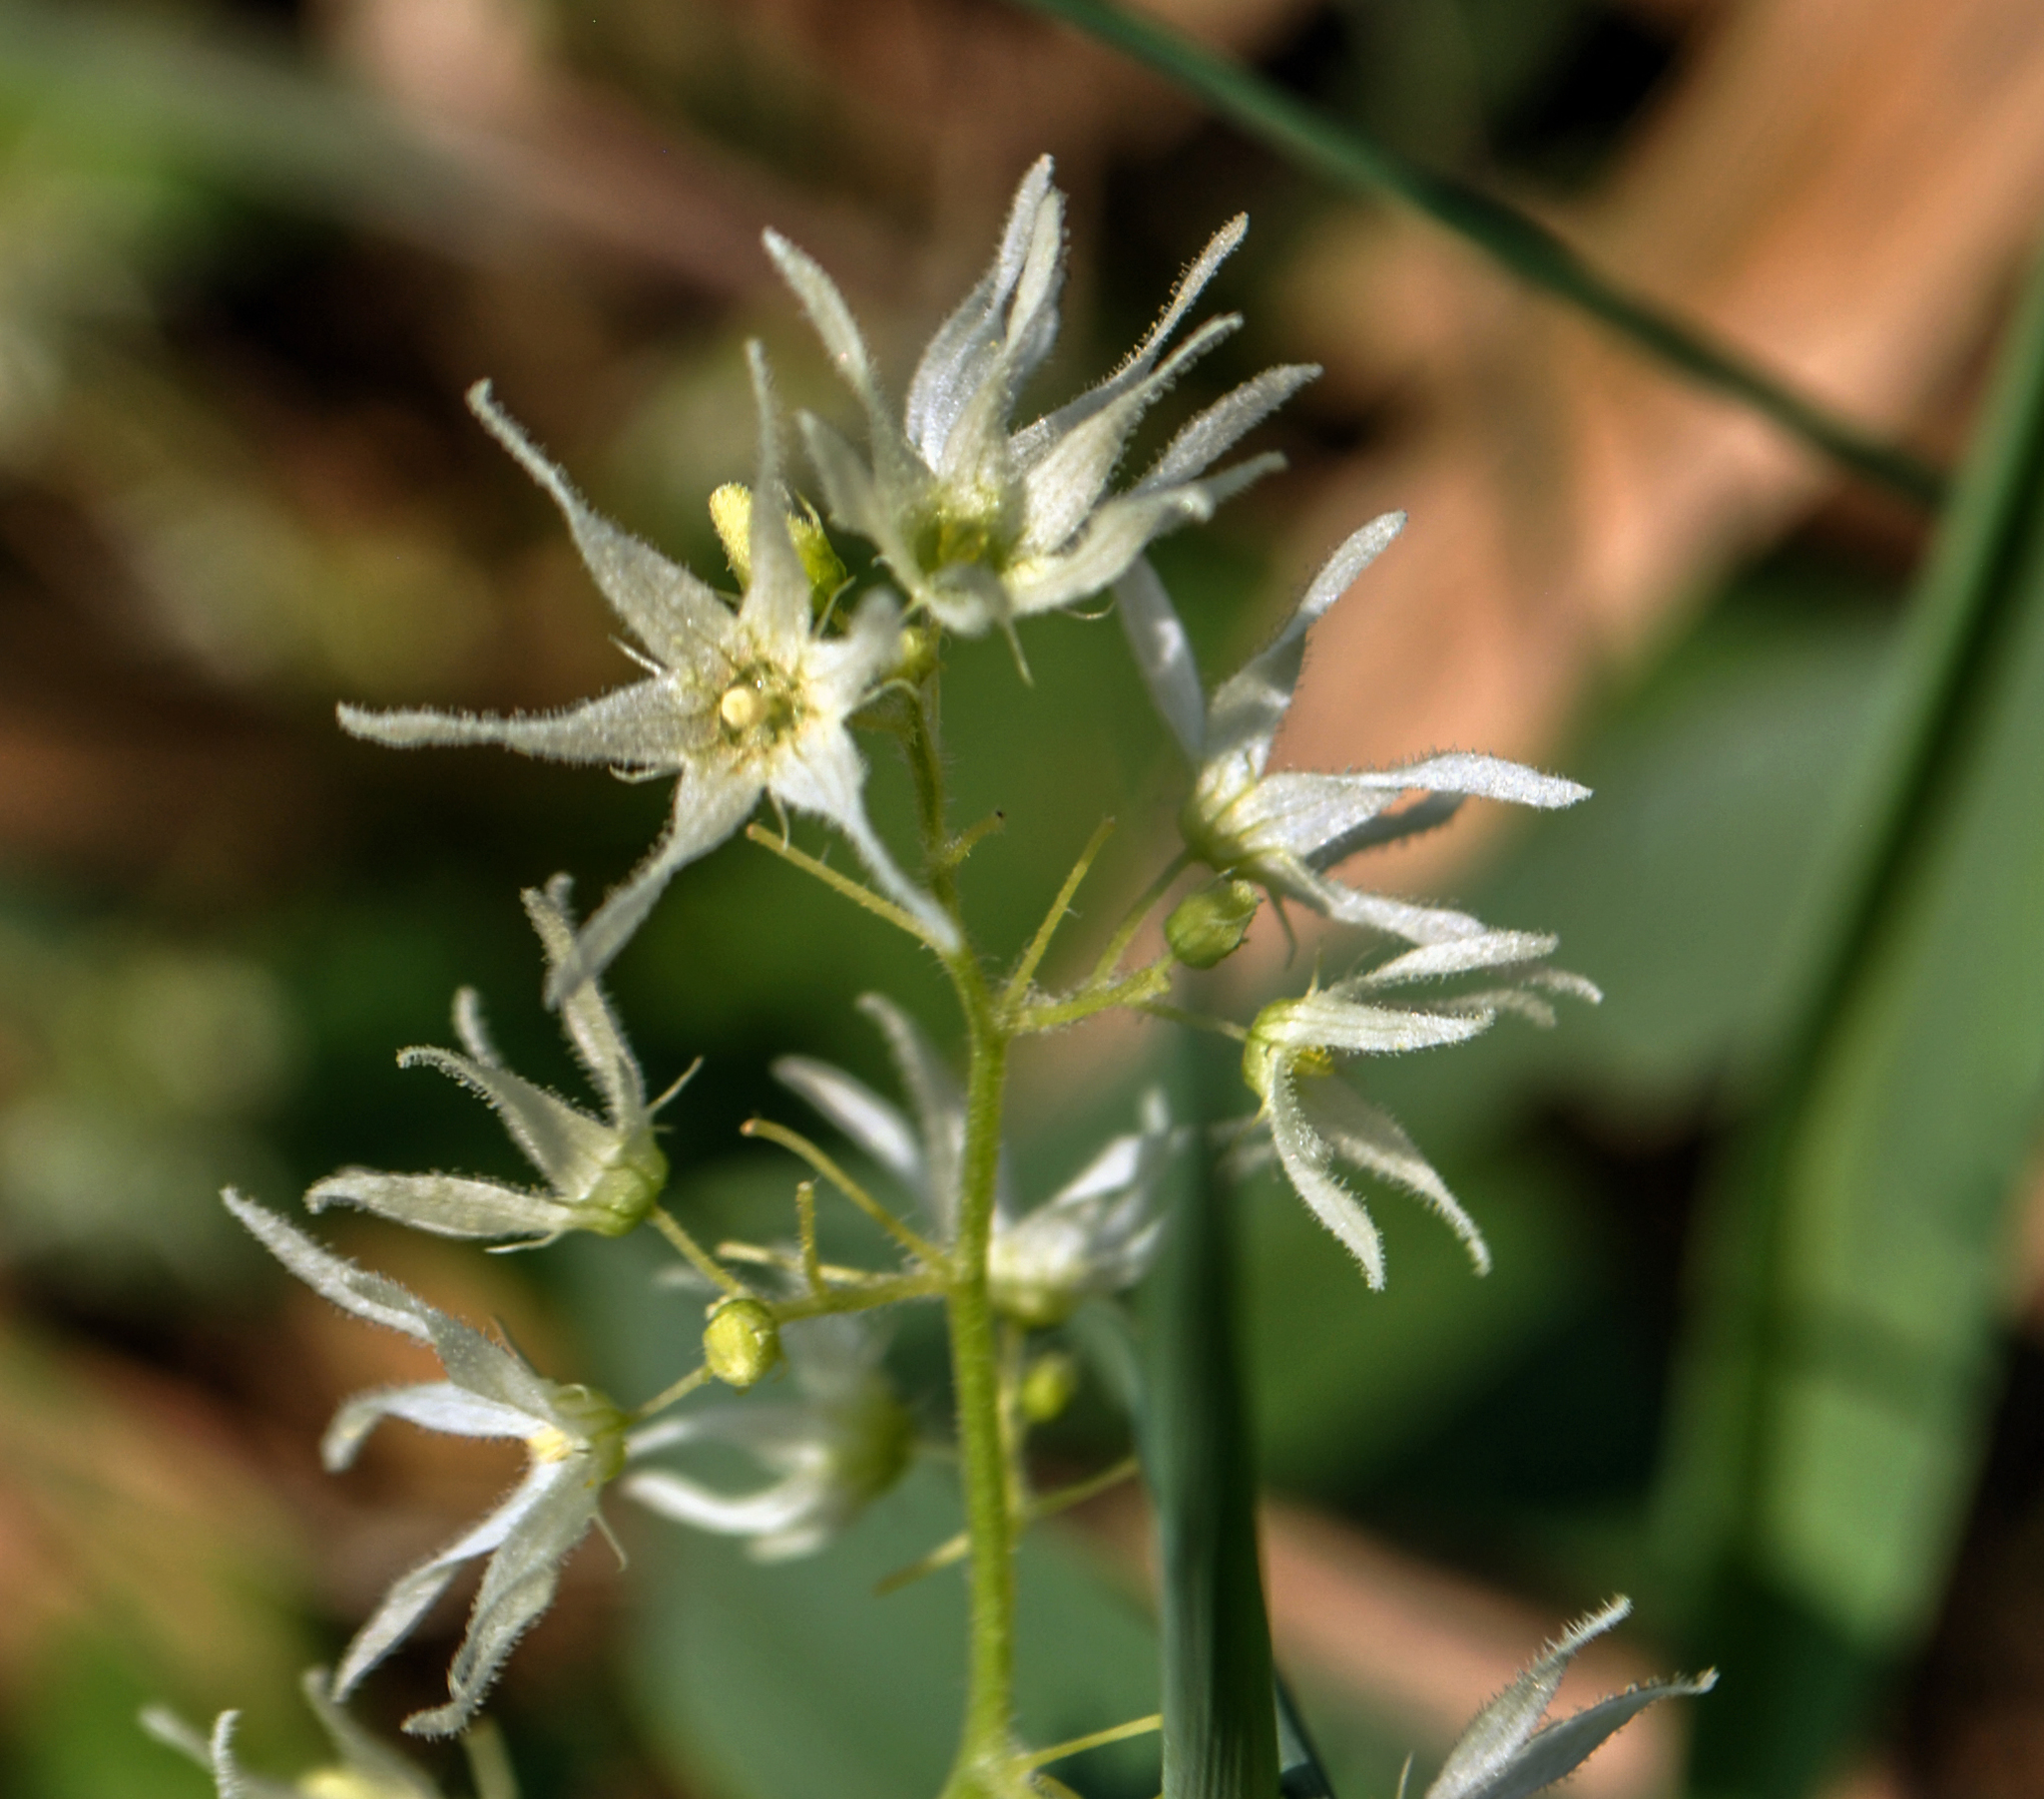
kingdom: Plantae
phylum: Tracheophyta
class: Magnoliopsida
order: Cucurbitales
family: Cucurbitaceae
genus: Echinocystis
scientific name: Echinocystis lobata
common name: Wild cucumber
